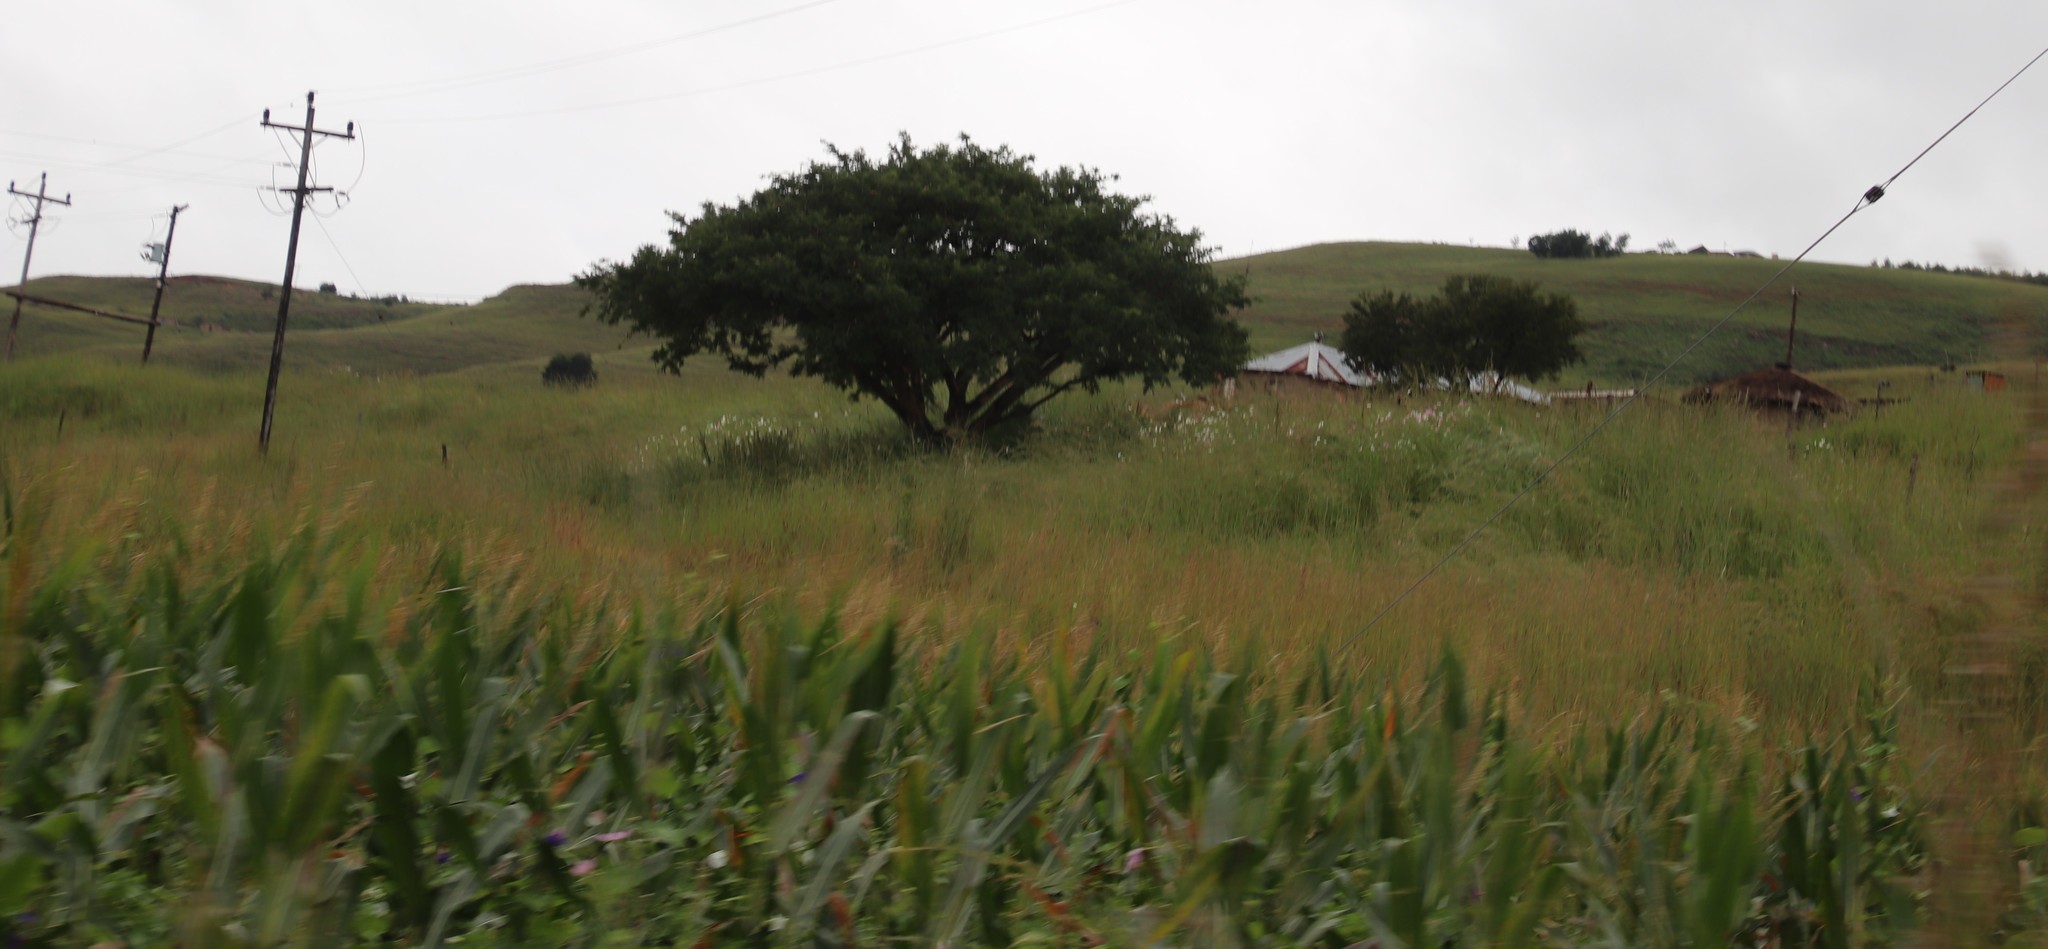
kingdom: Plantae
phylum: Tracheophyta
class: Magnoliopsida
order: Asterales
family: Asteraceae
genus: Cosmos
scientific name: Cosmos bipinnatus
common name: Garden cosmos
